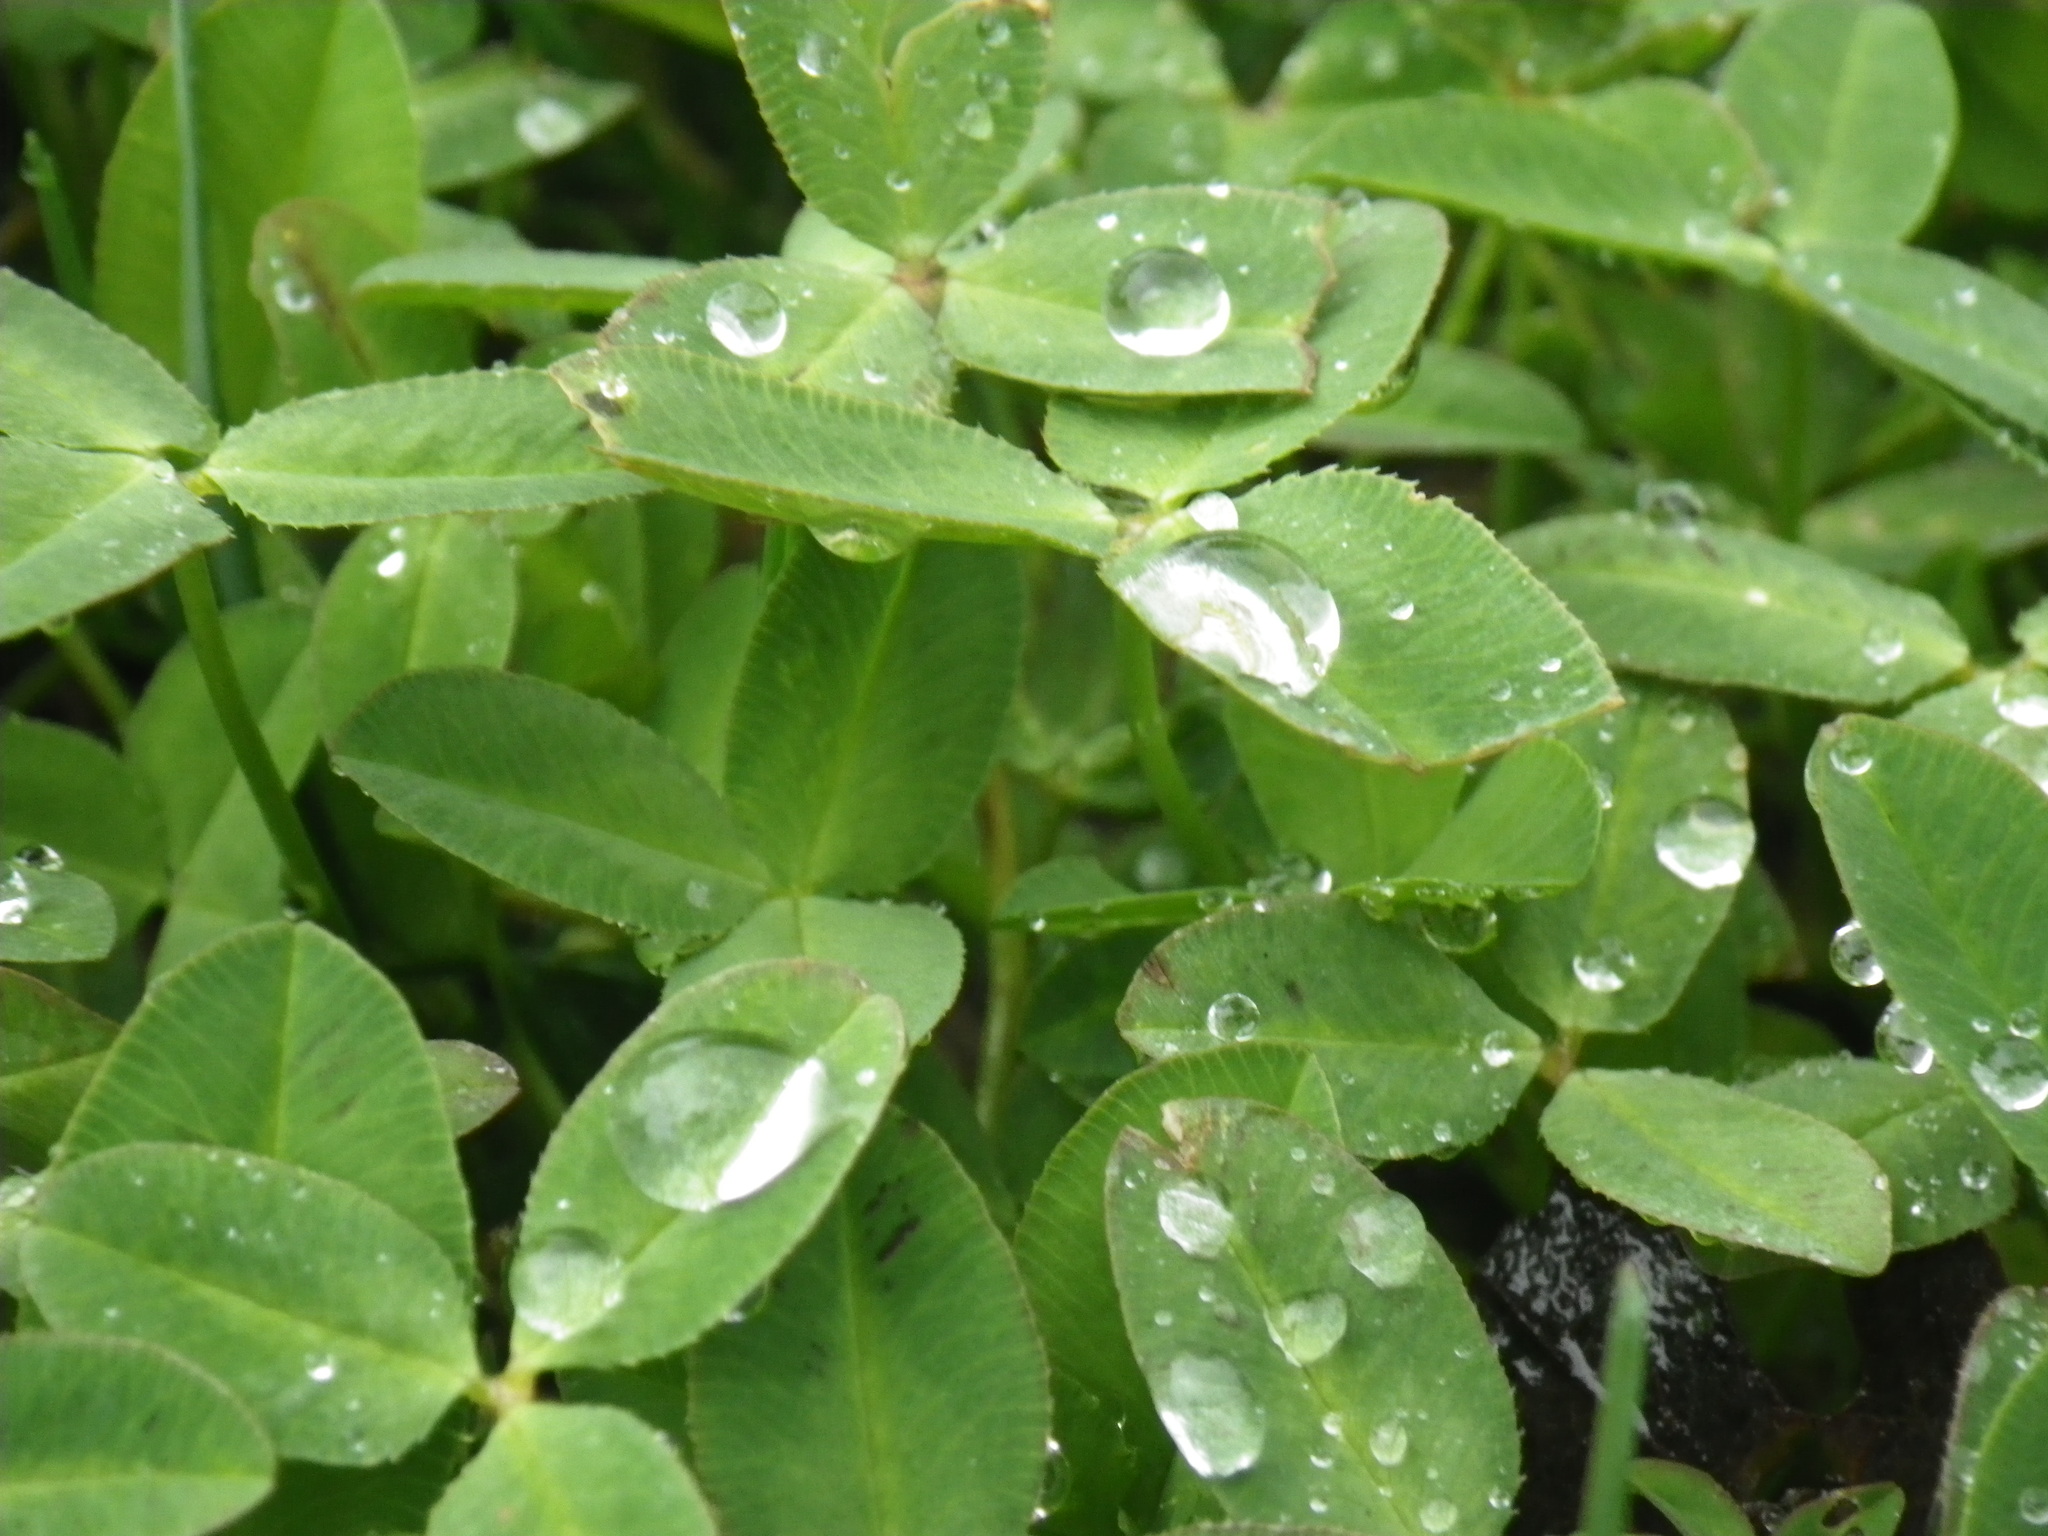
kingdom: Plantae
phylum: Tracheophyta
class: Magnoliopsida
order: Fabales
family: Fabaceae
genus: Trifolium
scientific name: Trifolium fragiferum
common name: Strawberry clover
